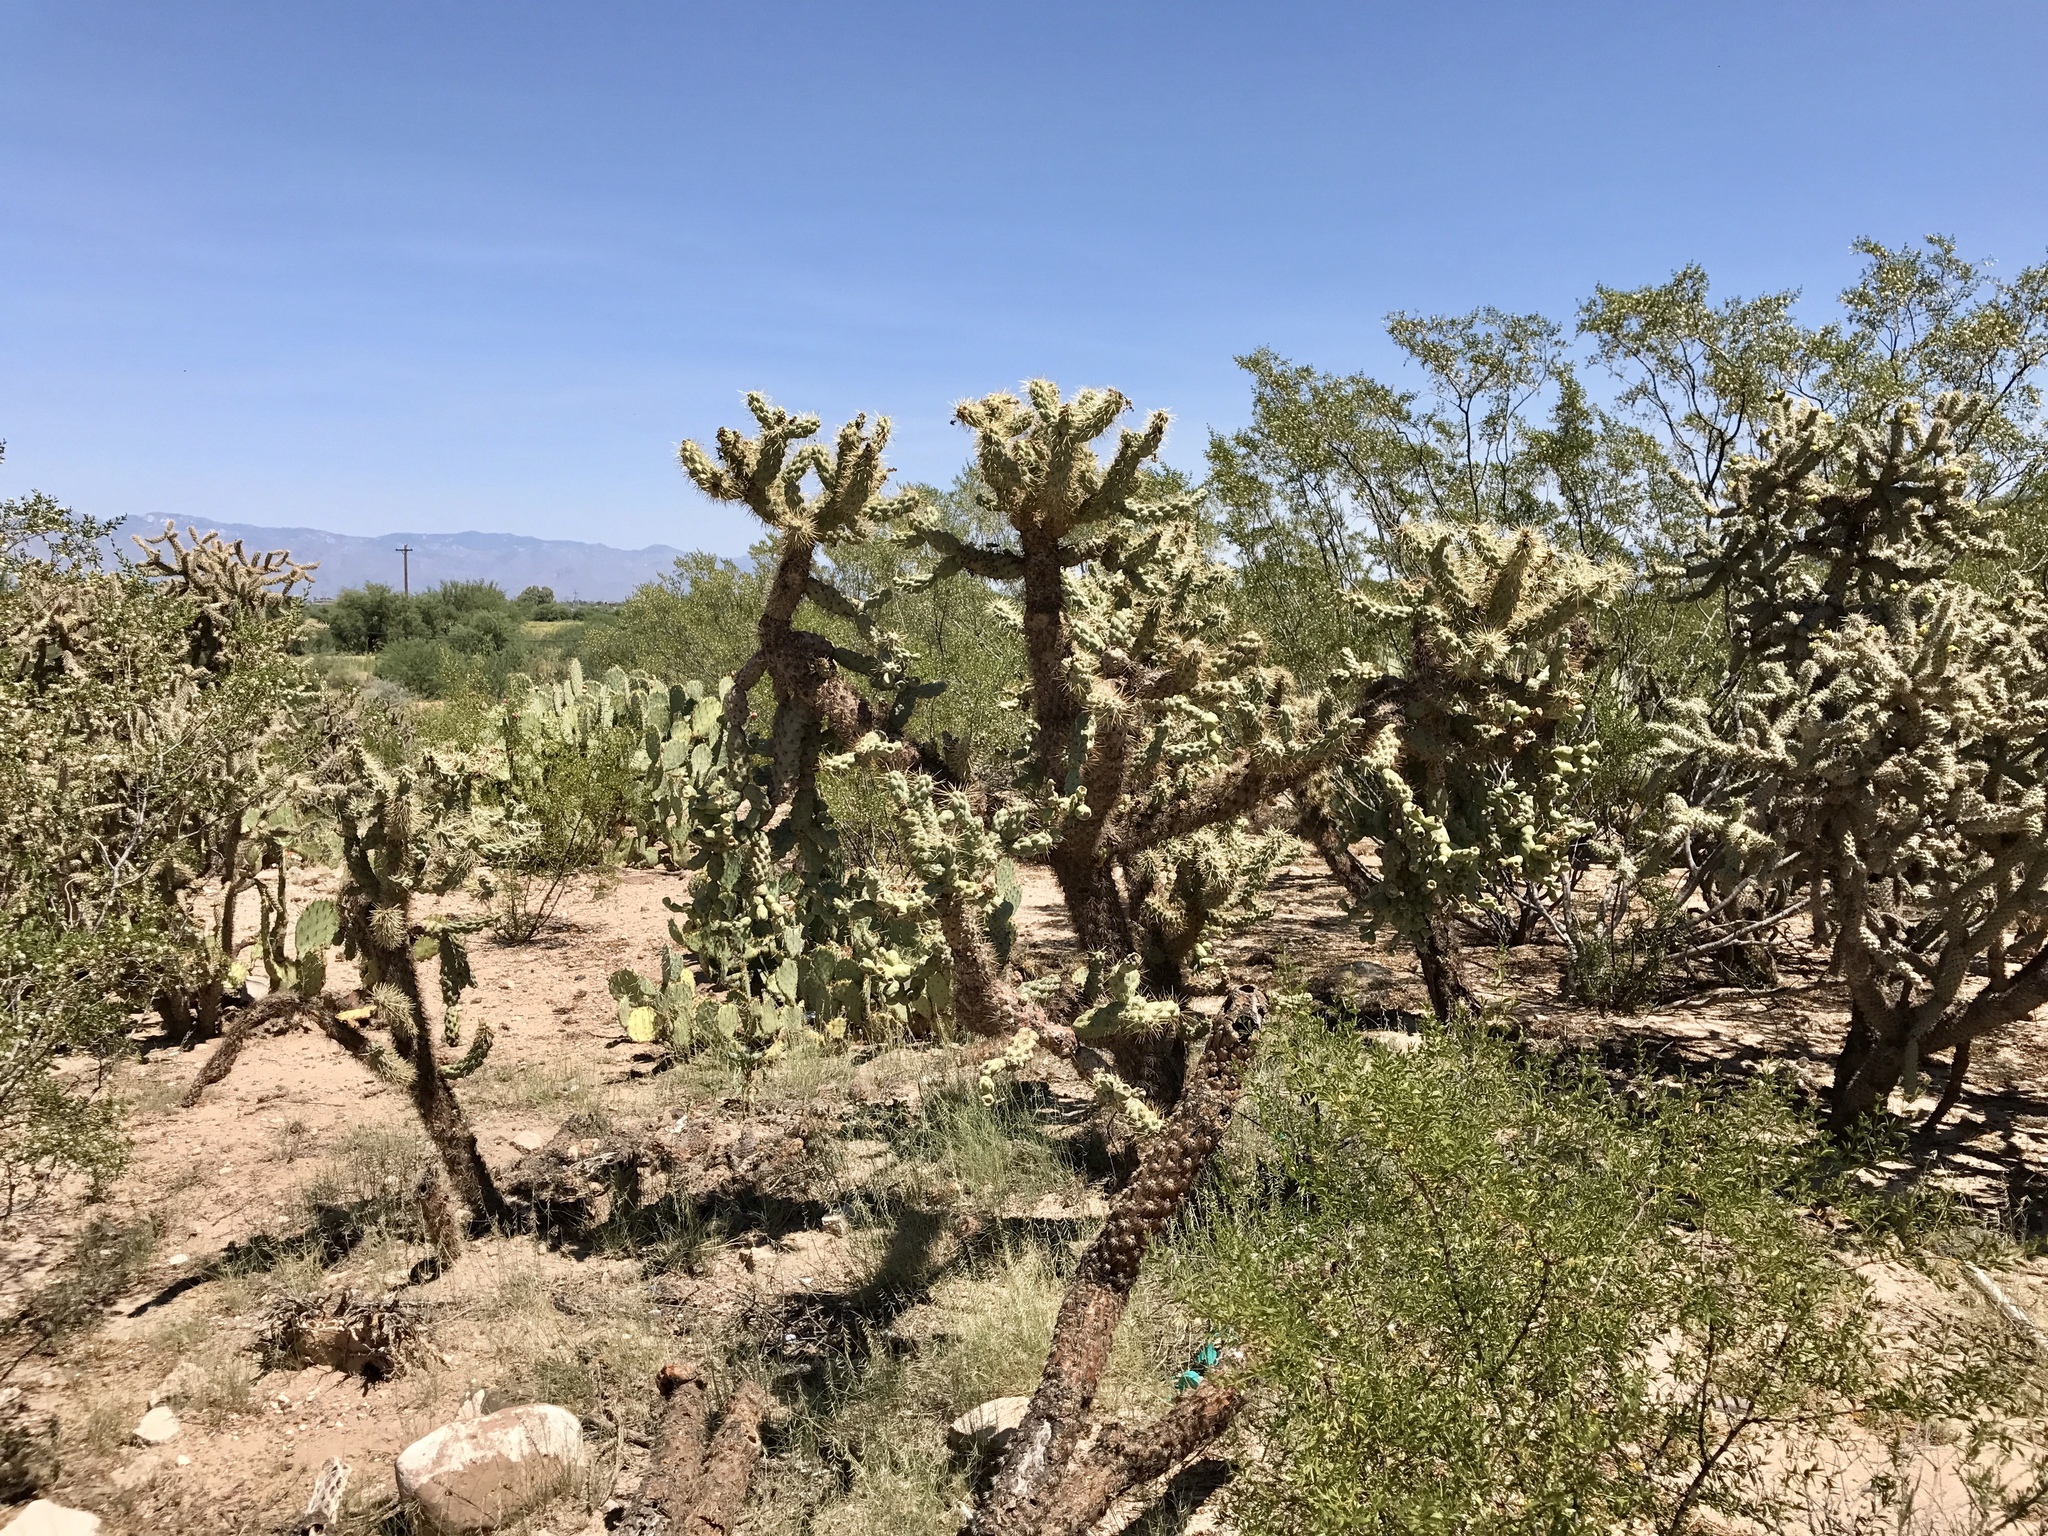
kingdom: Plantae
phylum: Tracheophyta
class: Magnoliopsida
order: Caryophyllales
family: Cactaceae
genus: Cylindropuntia
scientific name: Cylindropuntia fulgida
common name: Jumping cholla
